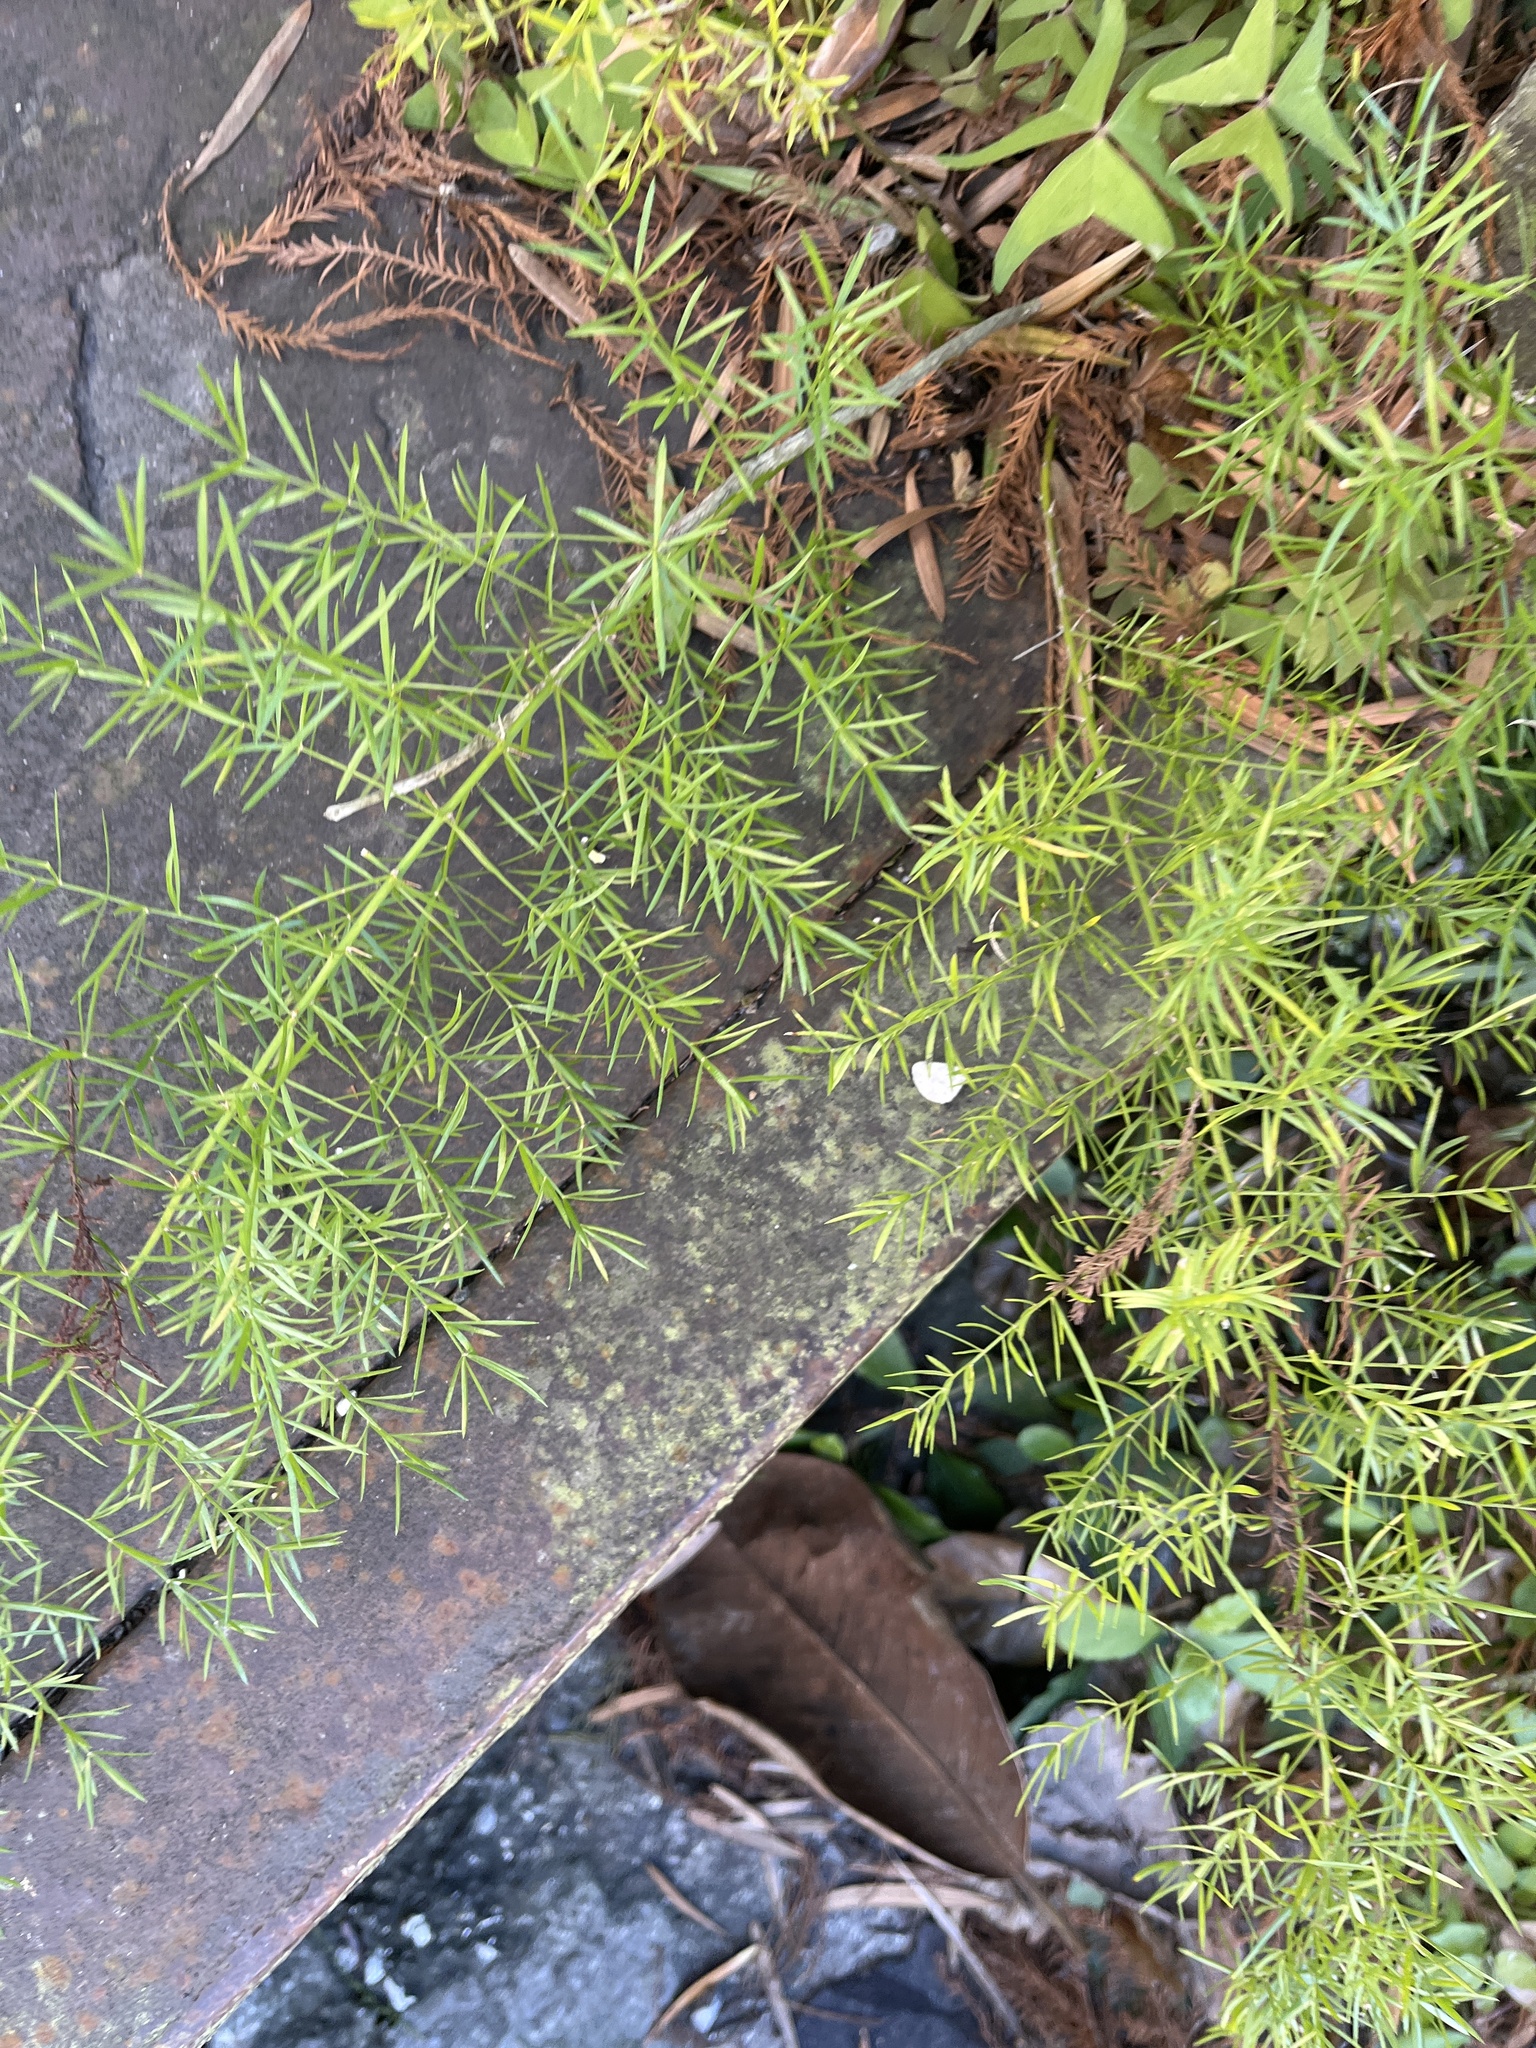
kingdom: Plantae
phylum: Tracheophyta
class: Liliopsida
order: Asparagales
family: Asparagaceae
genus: Asparagus
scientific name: Asparagus aethiopicus
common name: Sprenger's asparagus fern
